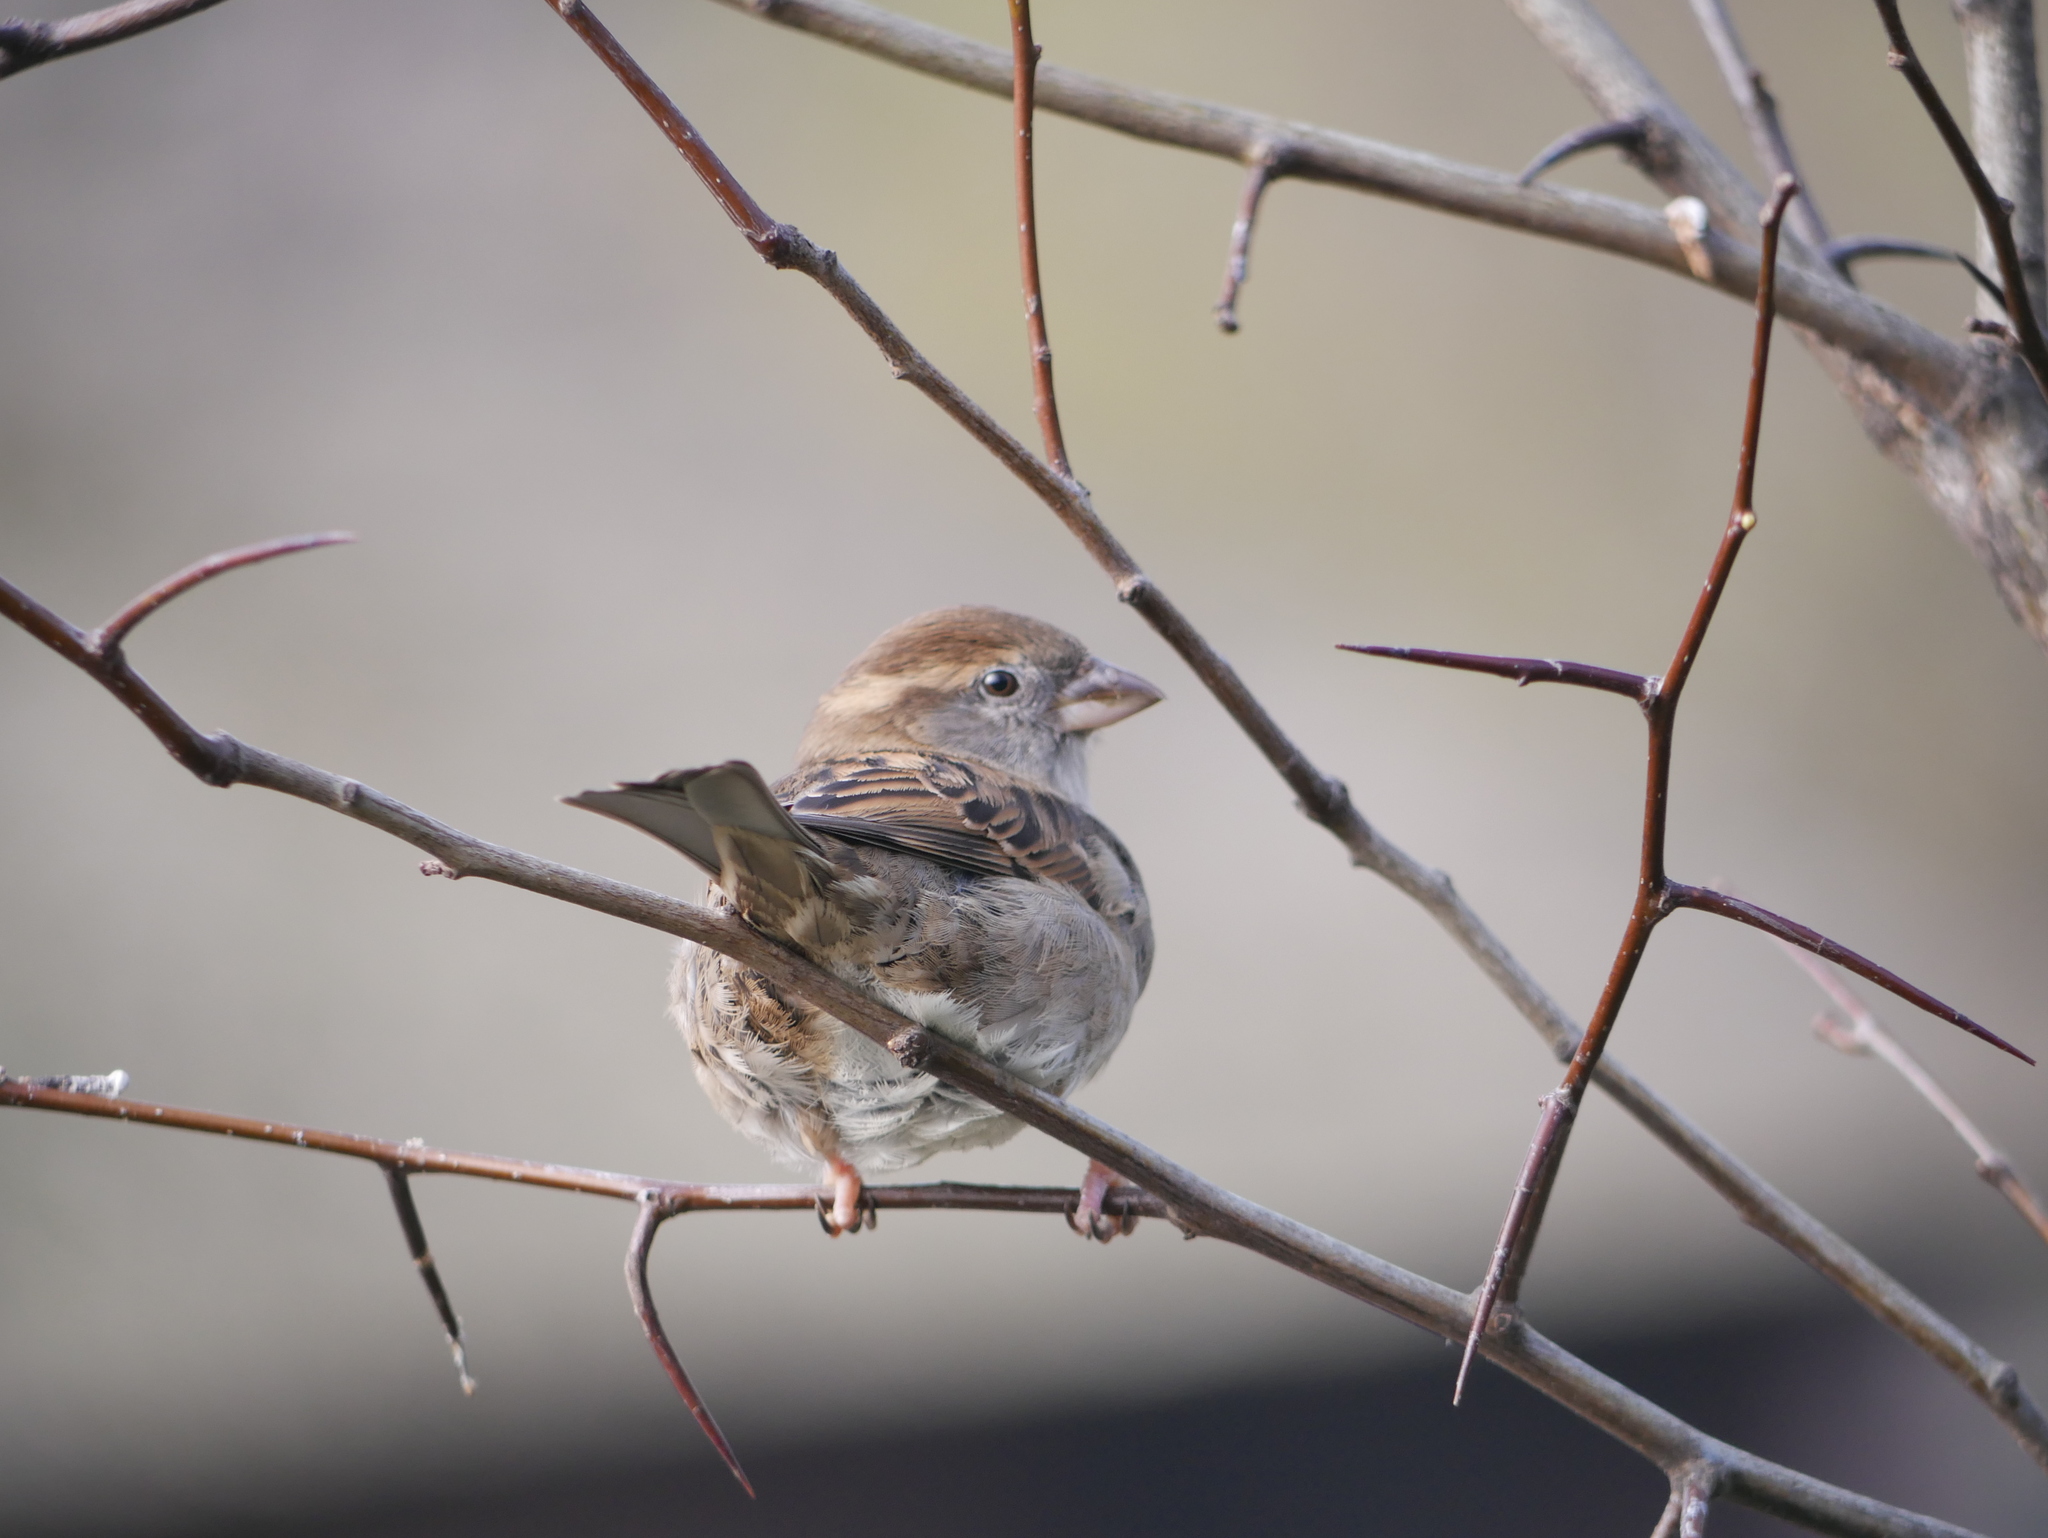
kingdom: Animalia
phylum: Chordata
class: Aves
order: Passeriformes
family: Passeridae
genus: Passer
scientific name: Passer domesticus
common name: House sparrow
